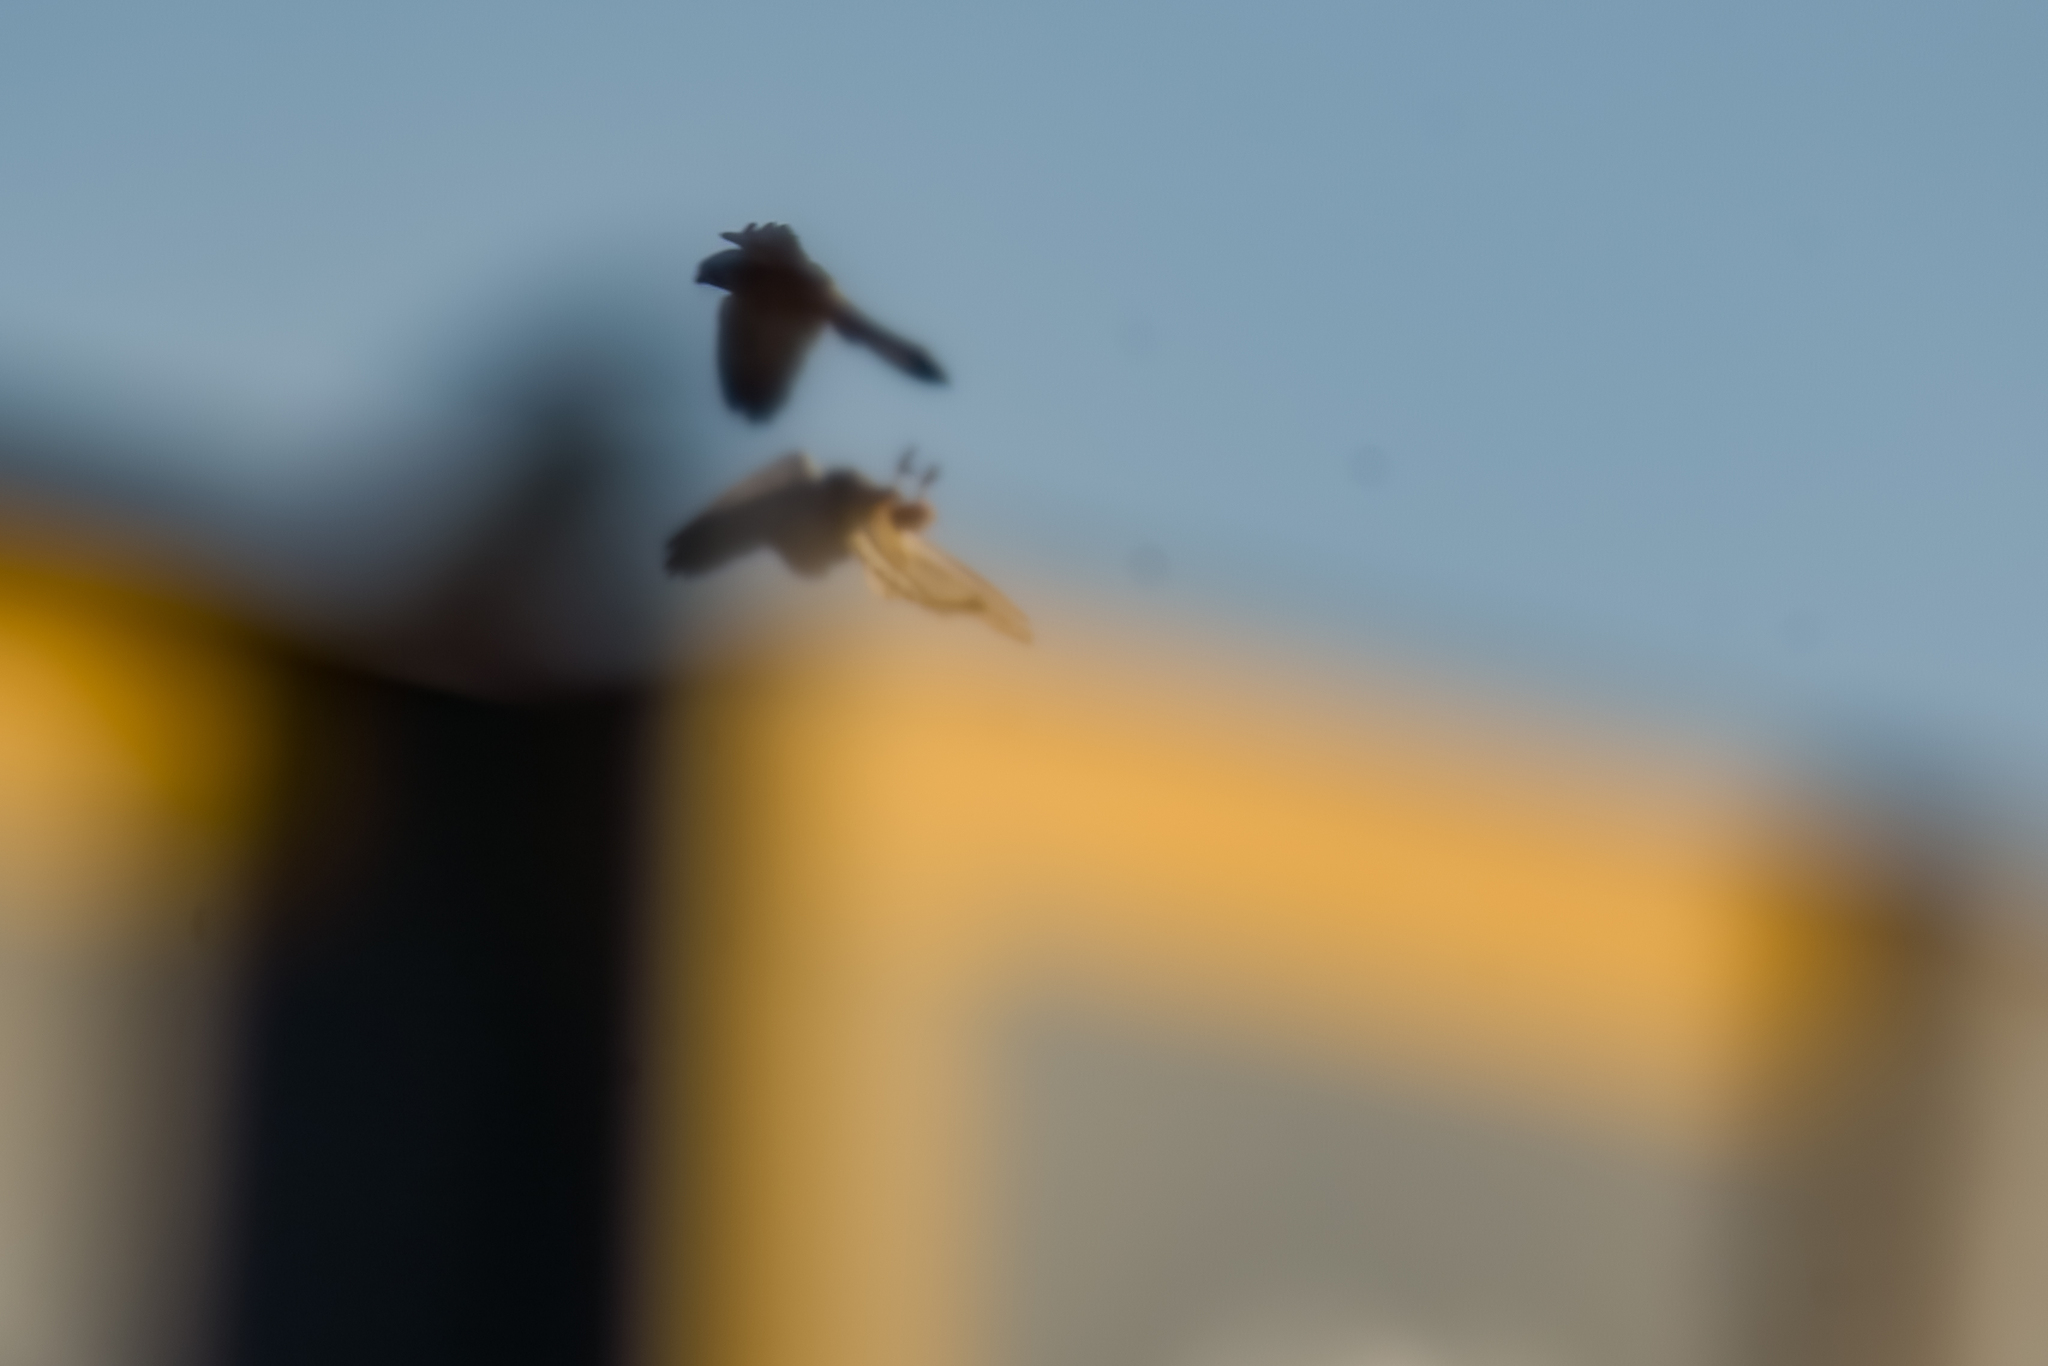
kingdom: Animalia
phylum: Chordata
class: Aves
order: Falconiformes
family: Falconidae
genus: Falco
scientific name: Falco tinnunculus
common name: Common kestrel
